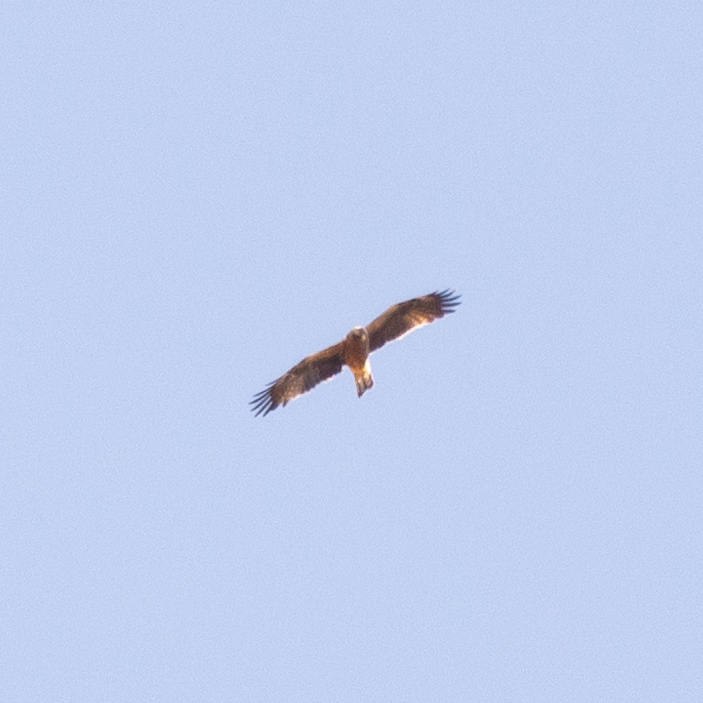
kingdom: Animalia
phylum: Chordata
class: Aves
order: Accipitriformes
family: Accipitridae
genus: Hieraaetus
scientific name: Hieraaetus pennatus
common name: Booted eagle
